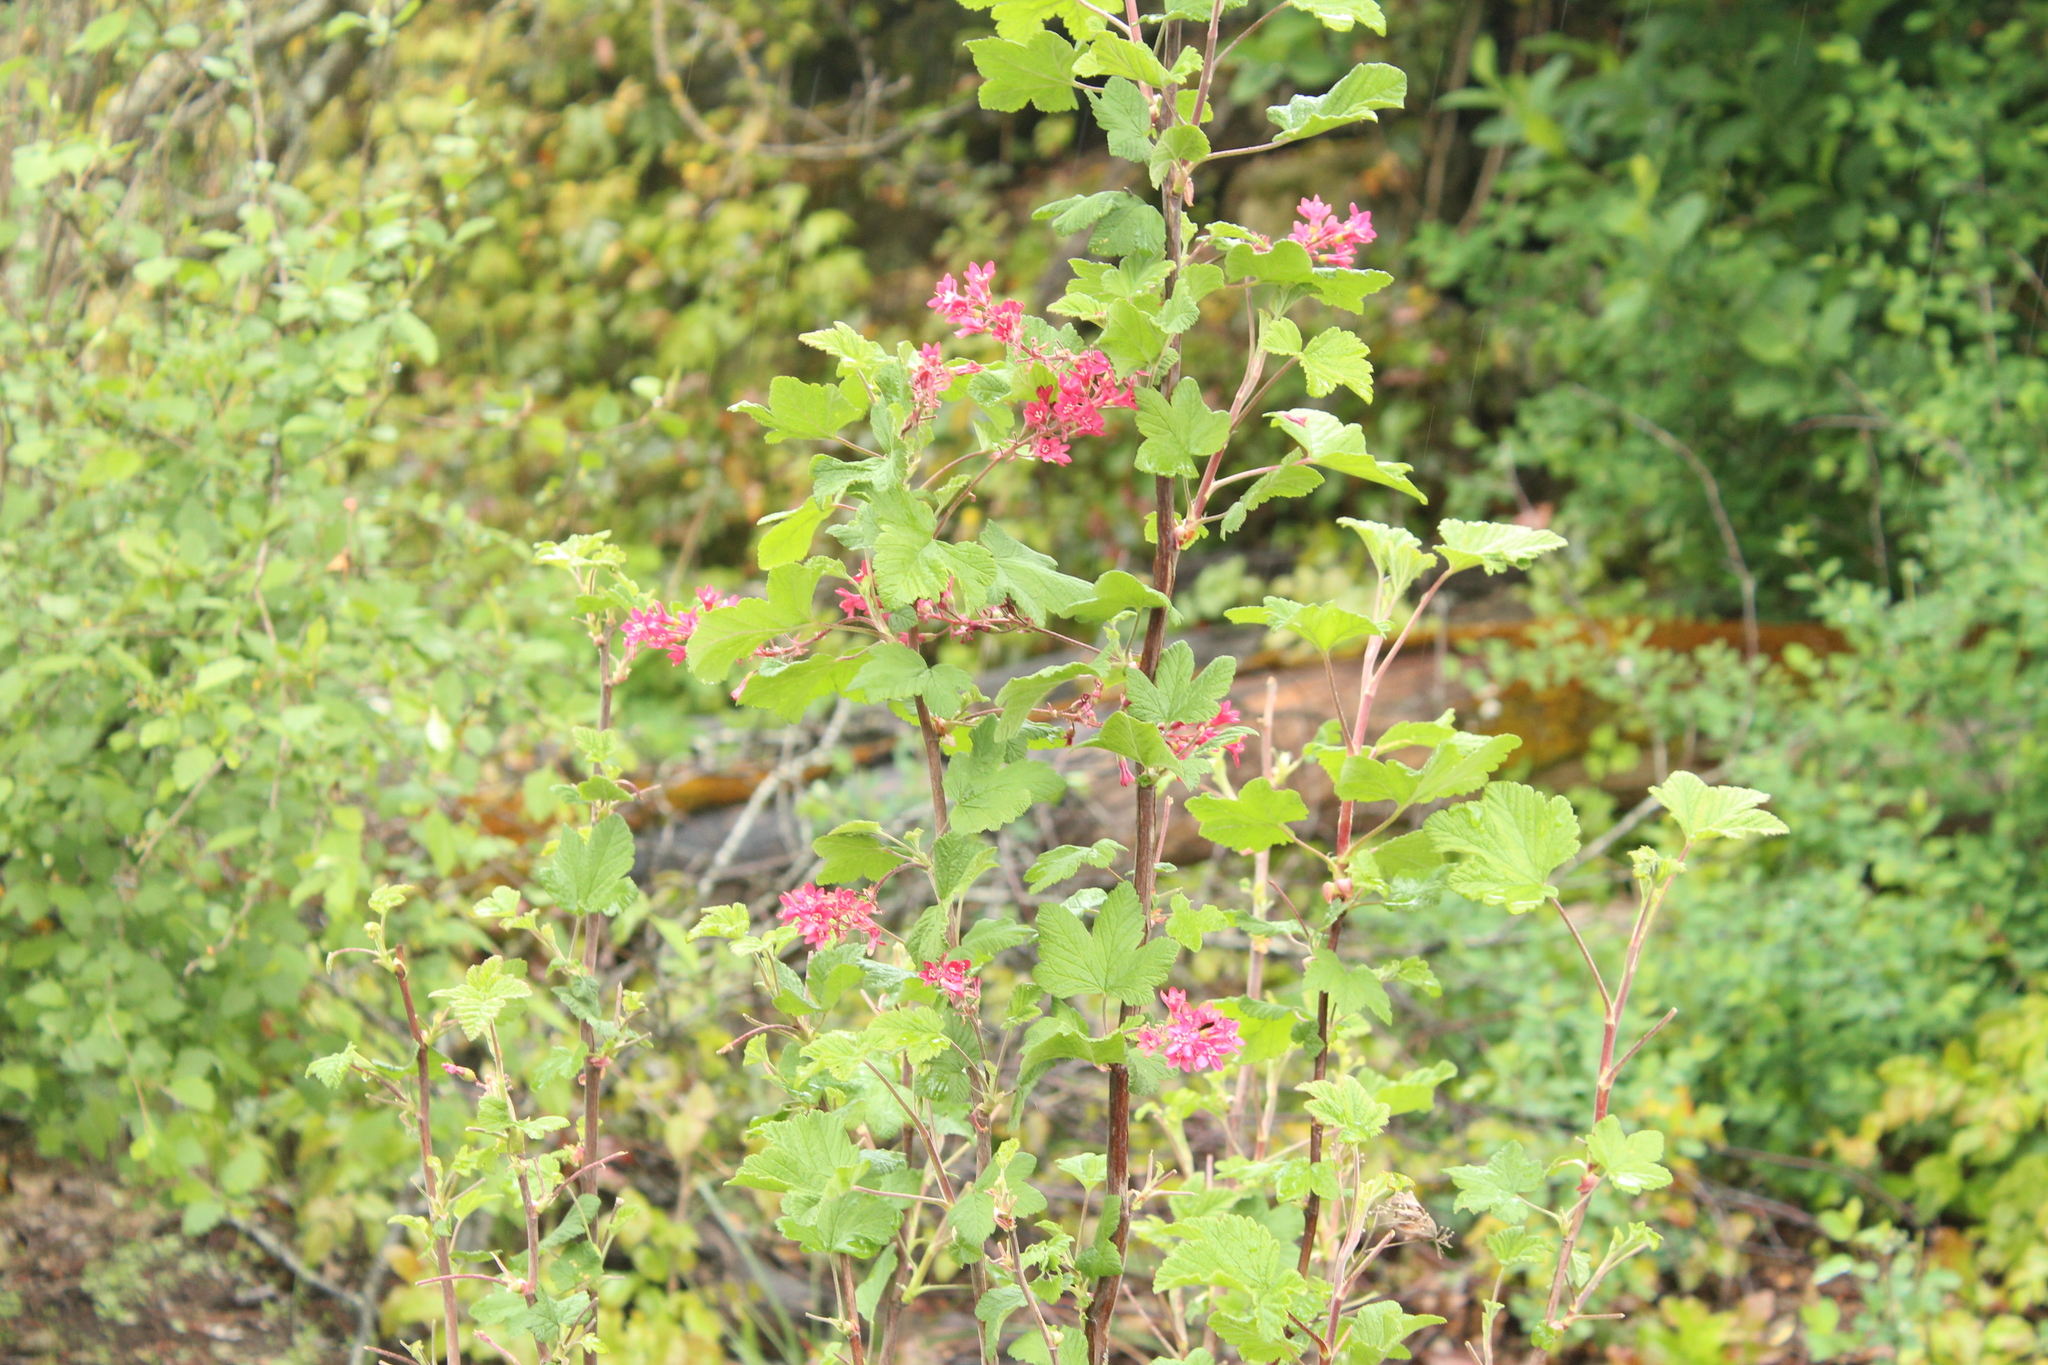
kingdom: Plantae
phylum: Tracheophyta
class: Magnoliopsida
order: Saxifragales
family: Grossulariaceae
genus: Ribes
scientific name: Ribes sanguineum
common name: Flowering currant
